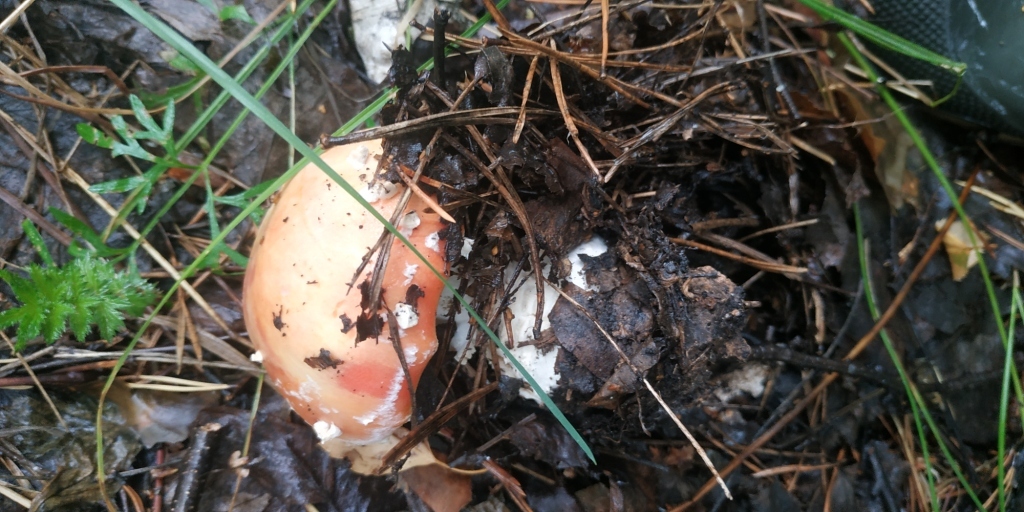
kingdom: Fungi
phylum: Basidiomycota
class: Agaricomycetes
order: Agaricales
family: Amanitaceae
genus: Amanita
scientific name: Amanita muscaria
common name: Fly agaric
